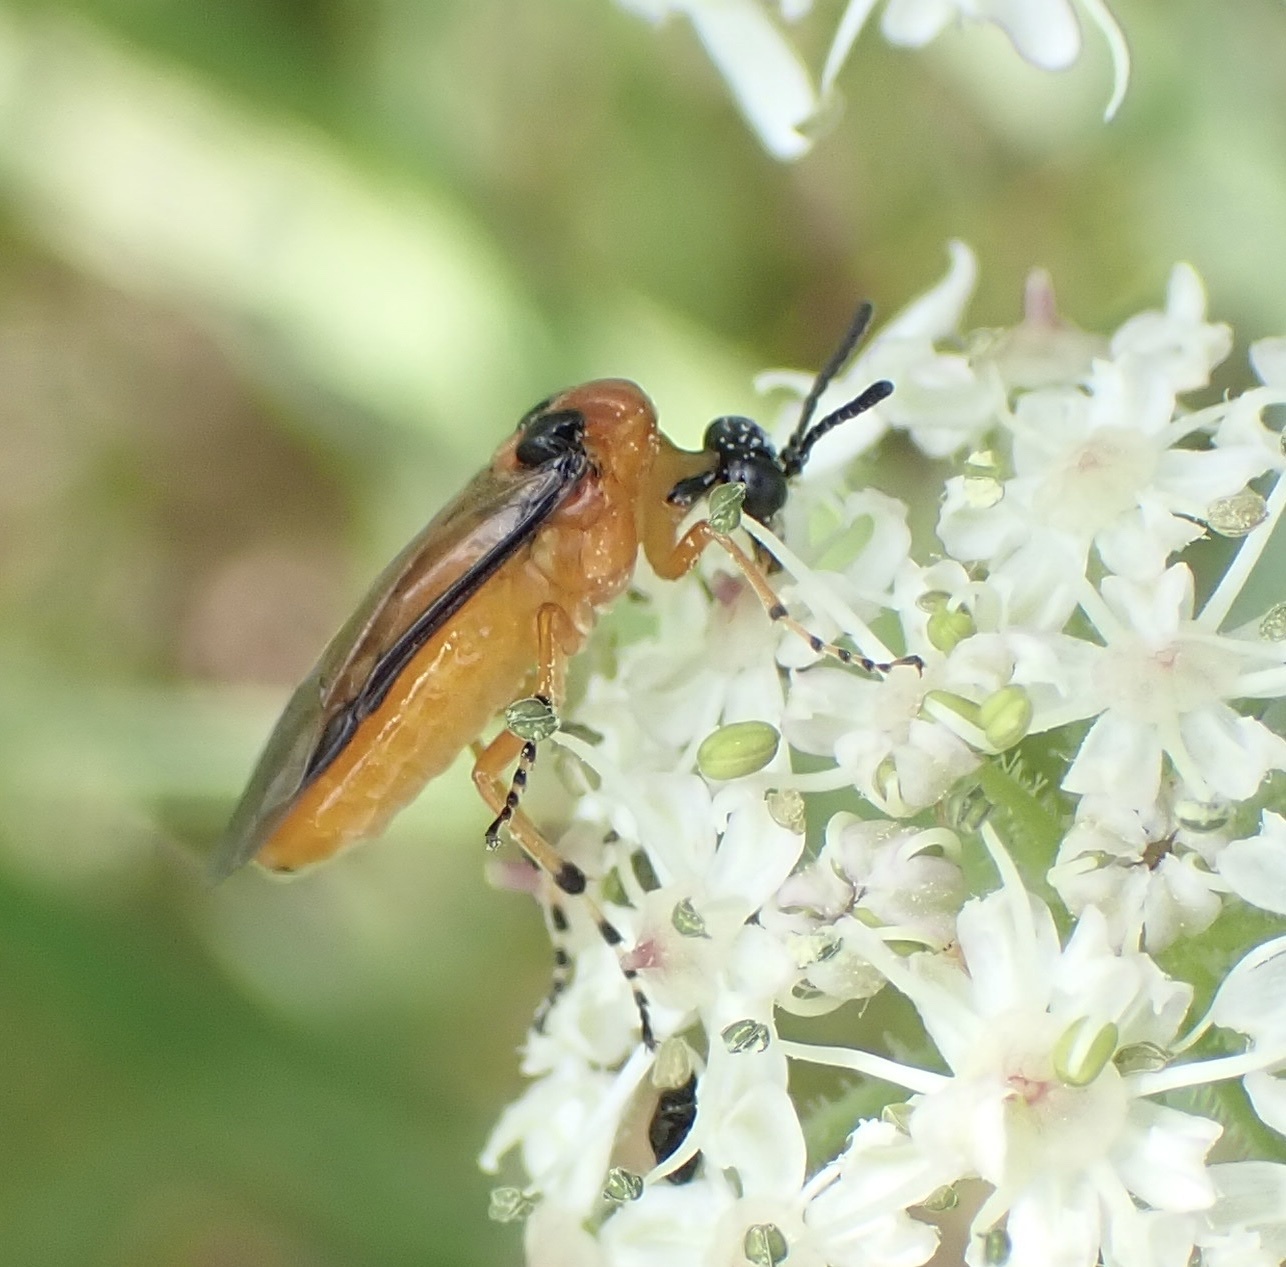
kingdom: Animalia
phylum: Arthropoda
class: Insecta
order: Hymenoptera
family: Tenthredinidae
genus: Athalia
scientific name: Athalia rosae
